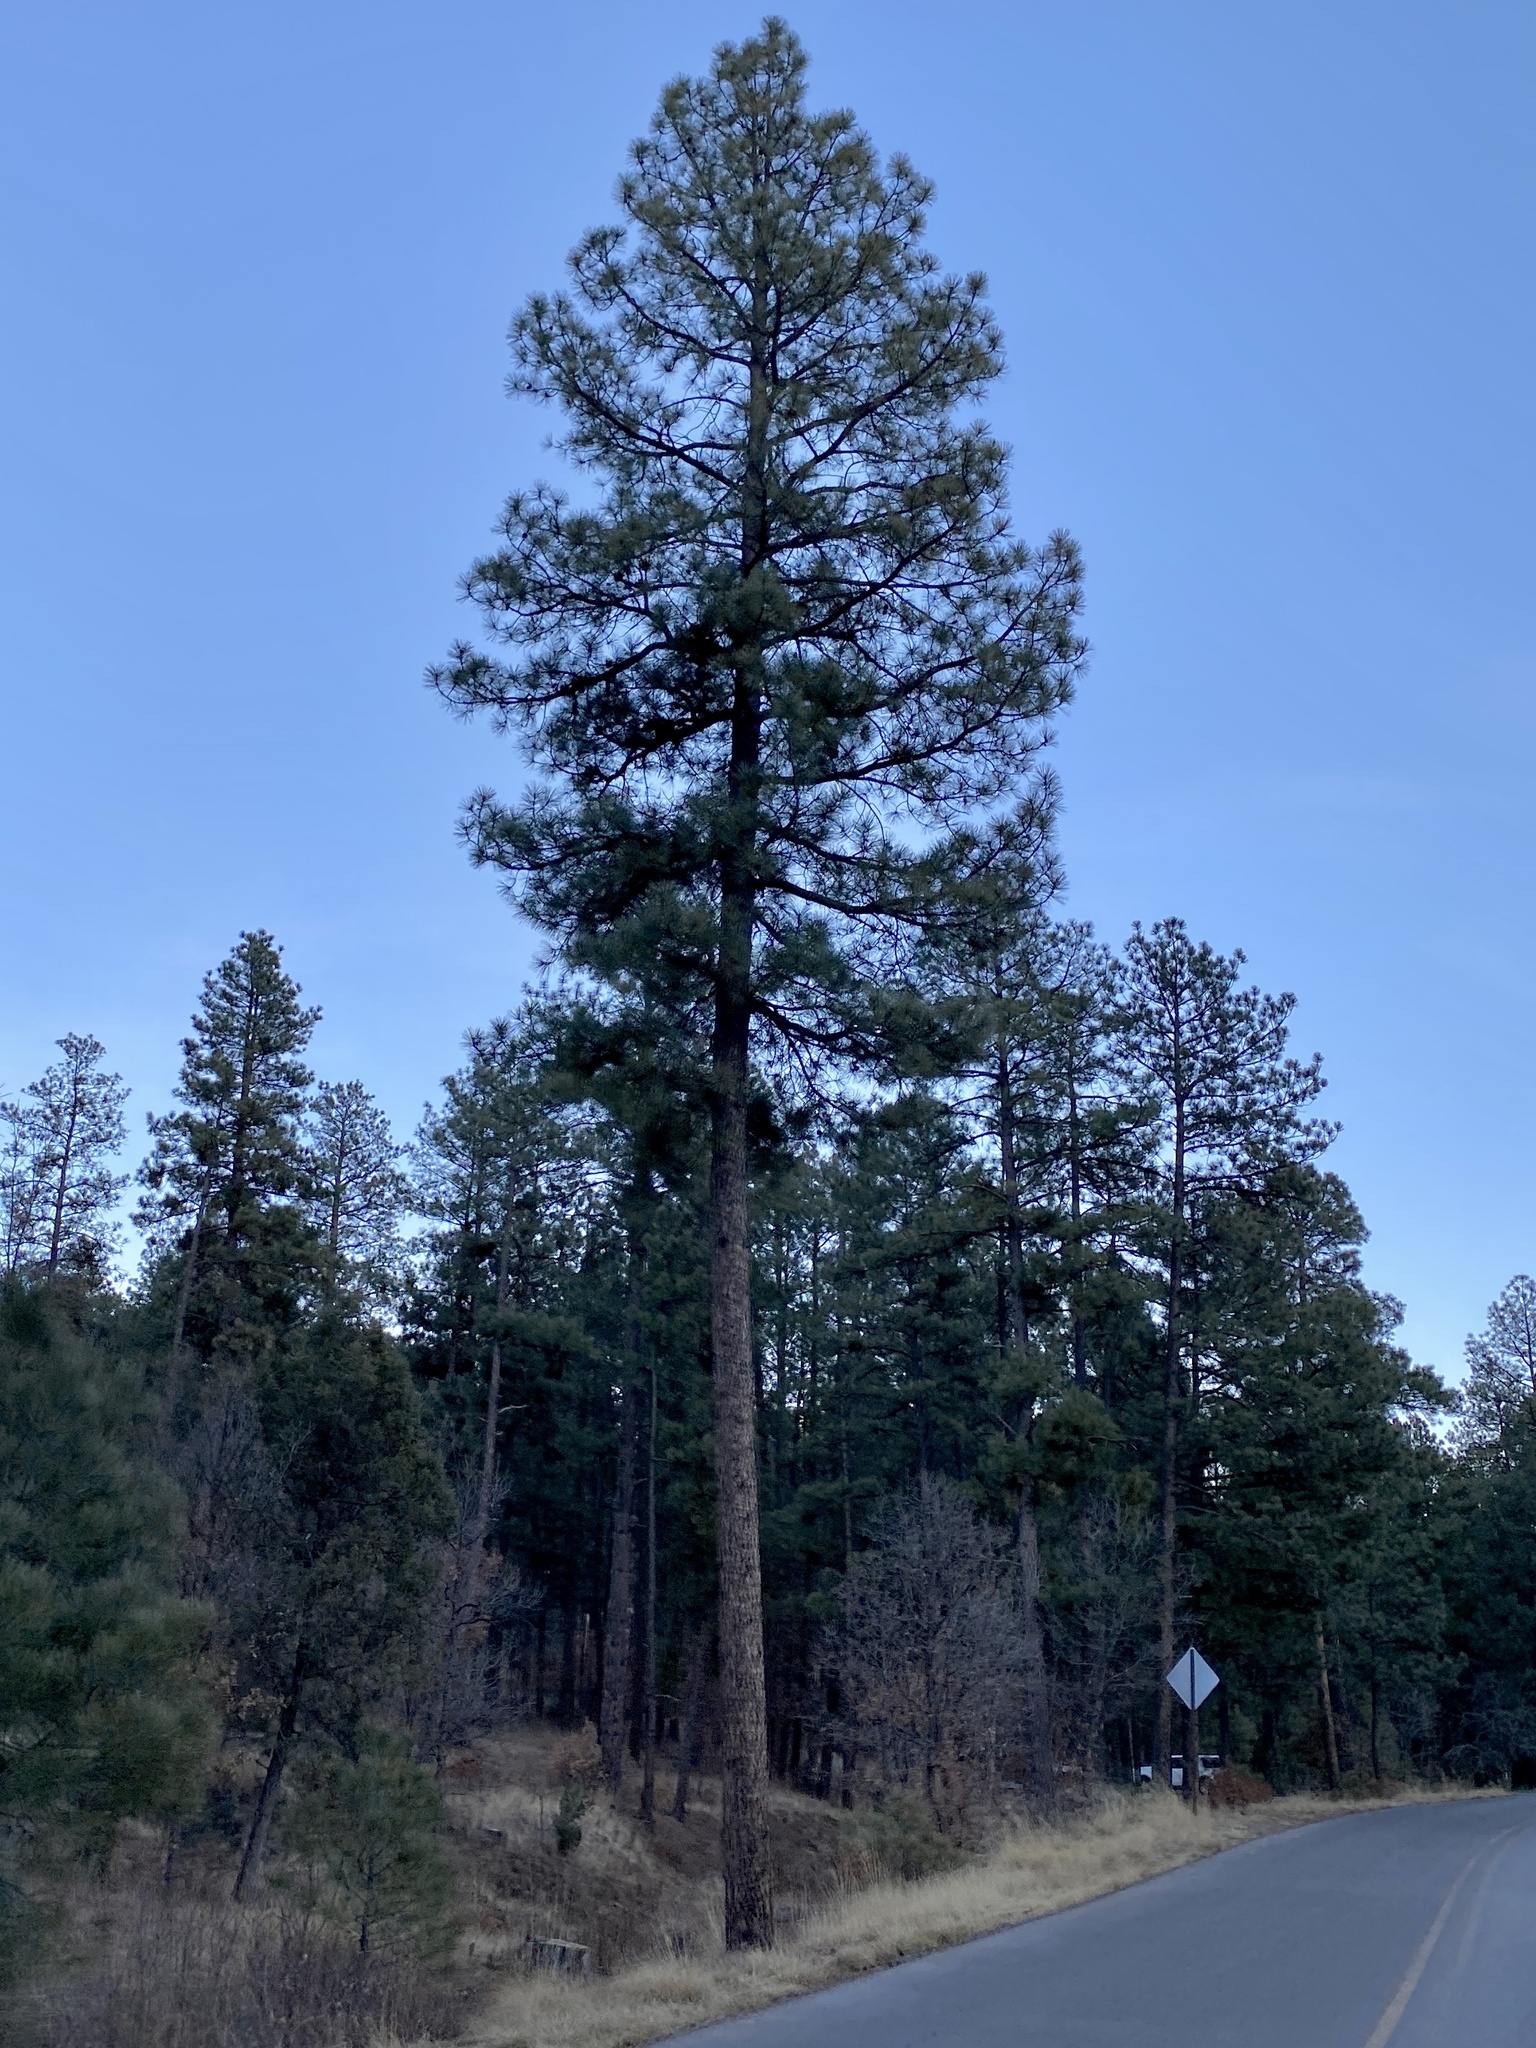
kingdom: Plantae
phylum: Tracheophyta
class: Pinopsida
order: Pinales
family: Pinaceae
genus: Pinus
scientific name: Pinus ponderosa
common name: Western yellow-pine
